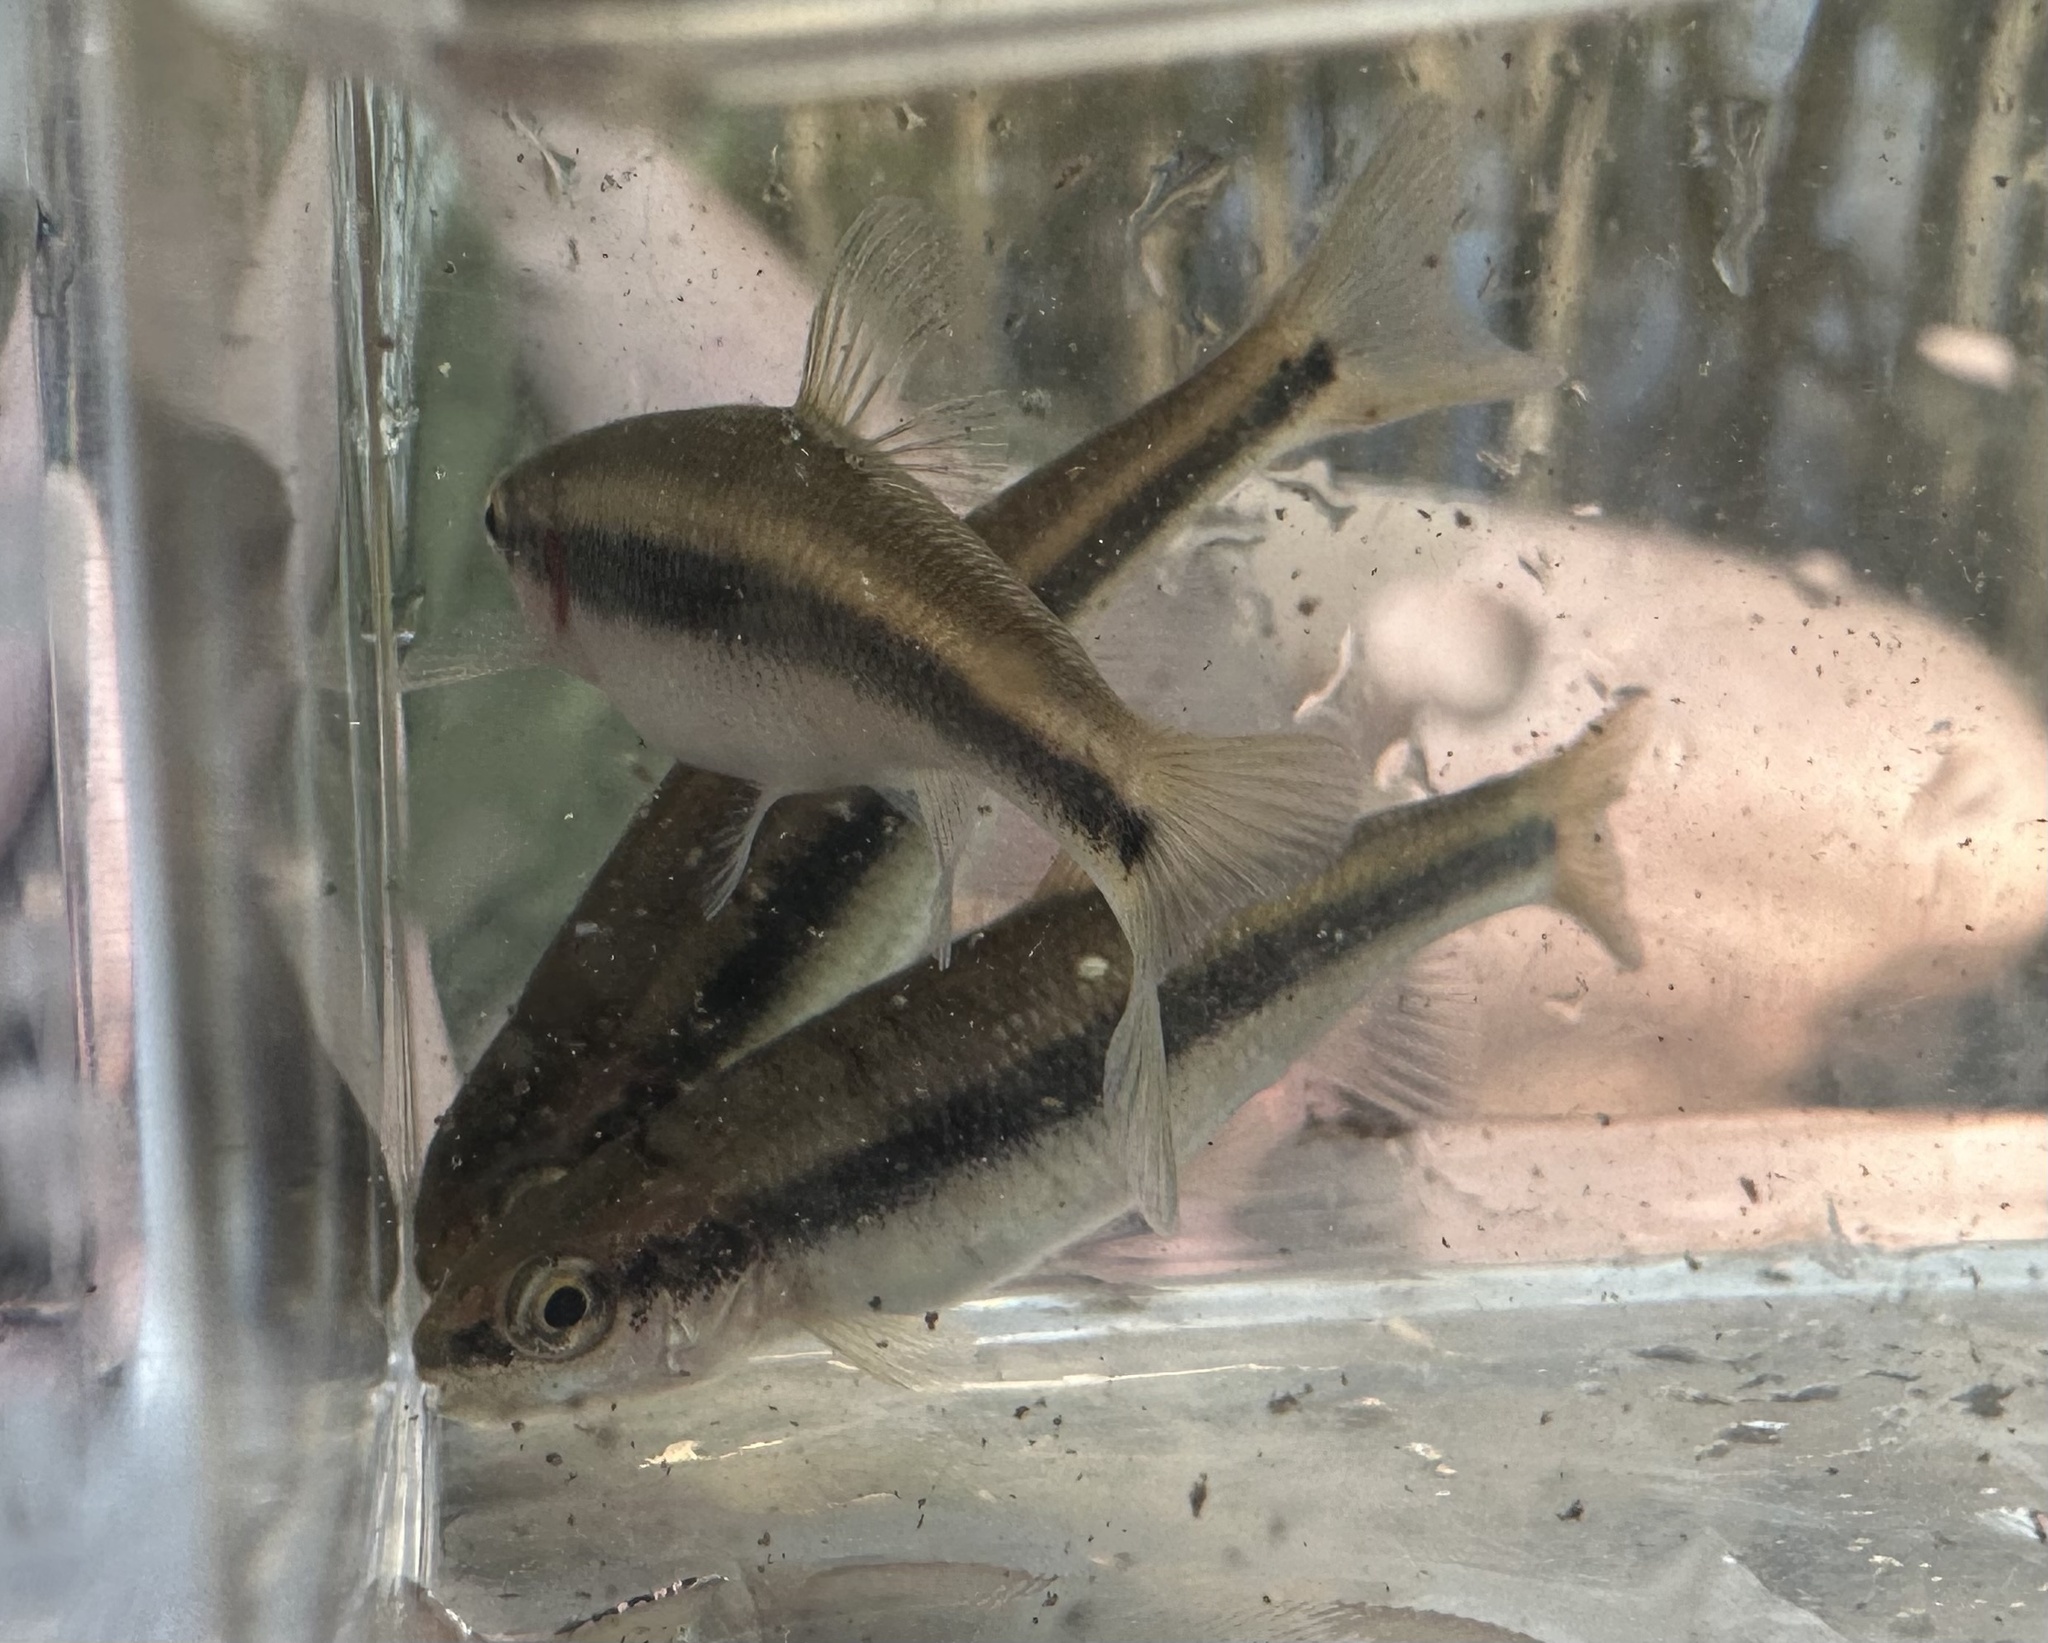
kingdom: Animalia
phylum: Chordata
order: Cypriniformes
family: Cyprinidae
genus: Semotilus
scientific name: Semotilus lumbee
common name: Sandhills chub
